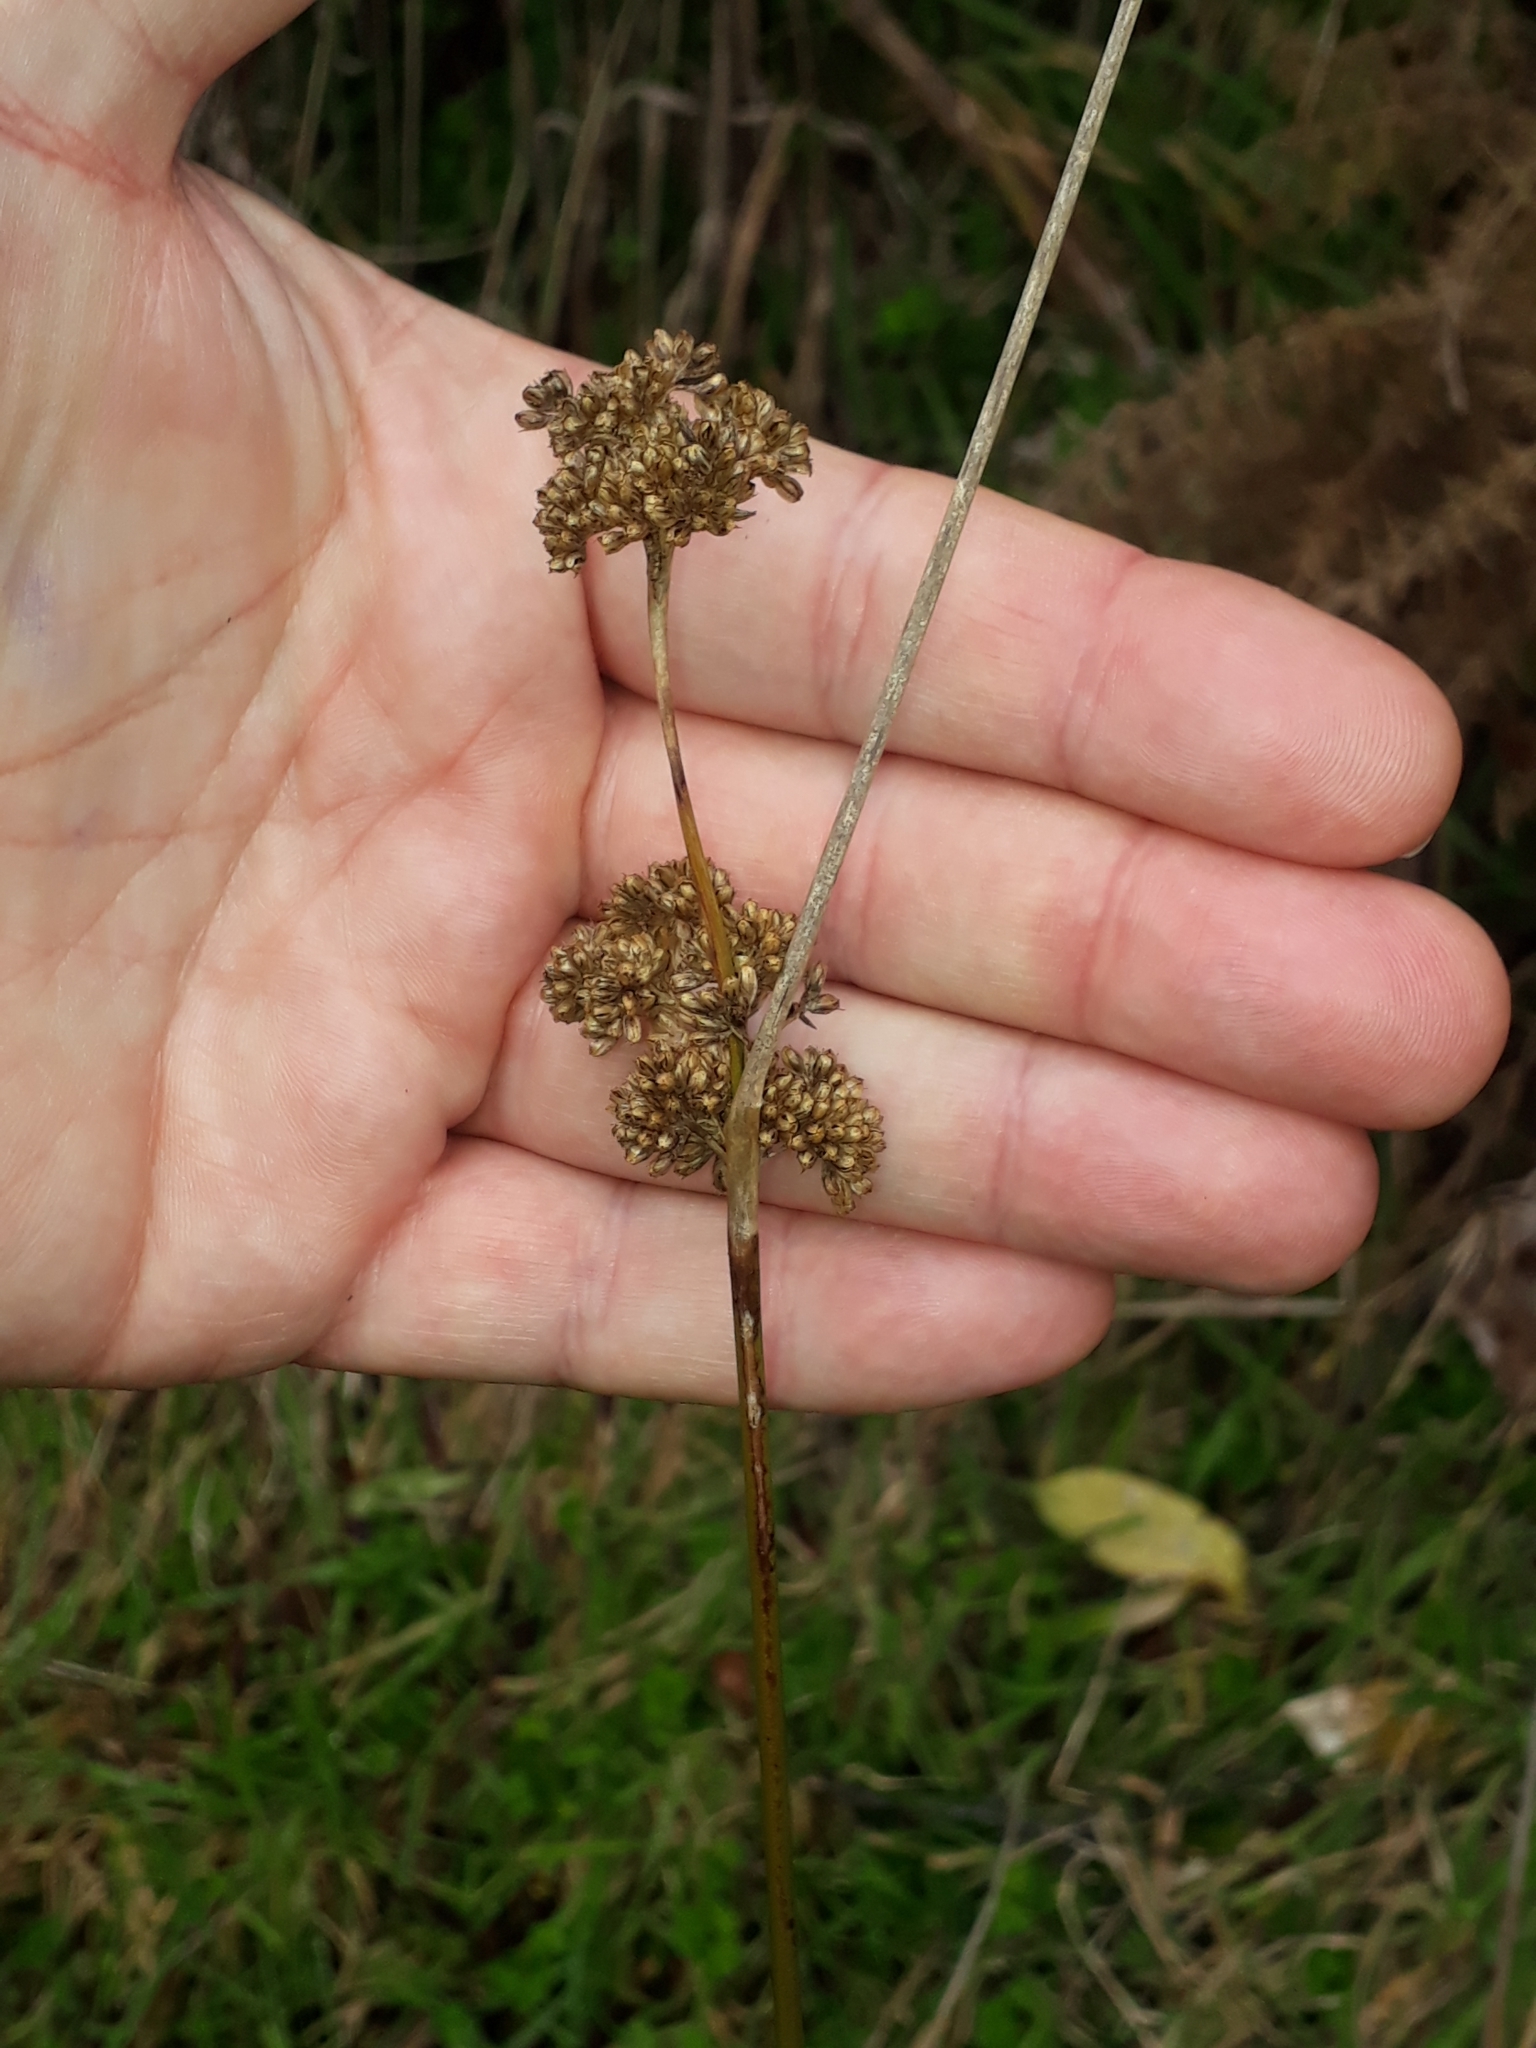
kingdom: Plantae
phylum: Tracheophyta
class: Liliopsida
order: Poales
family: Juncaceae
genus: Juncus
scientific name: Juncus australis
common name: Austral rush
